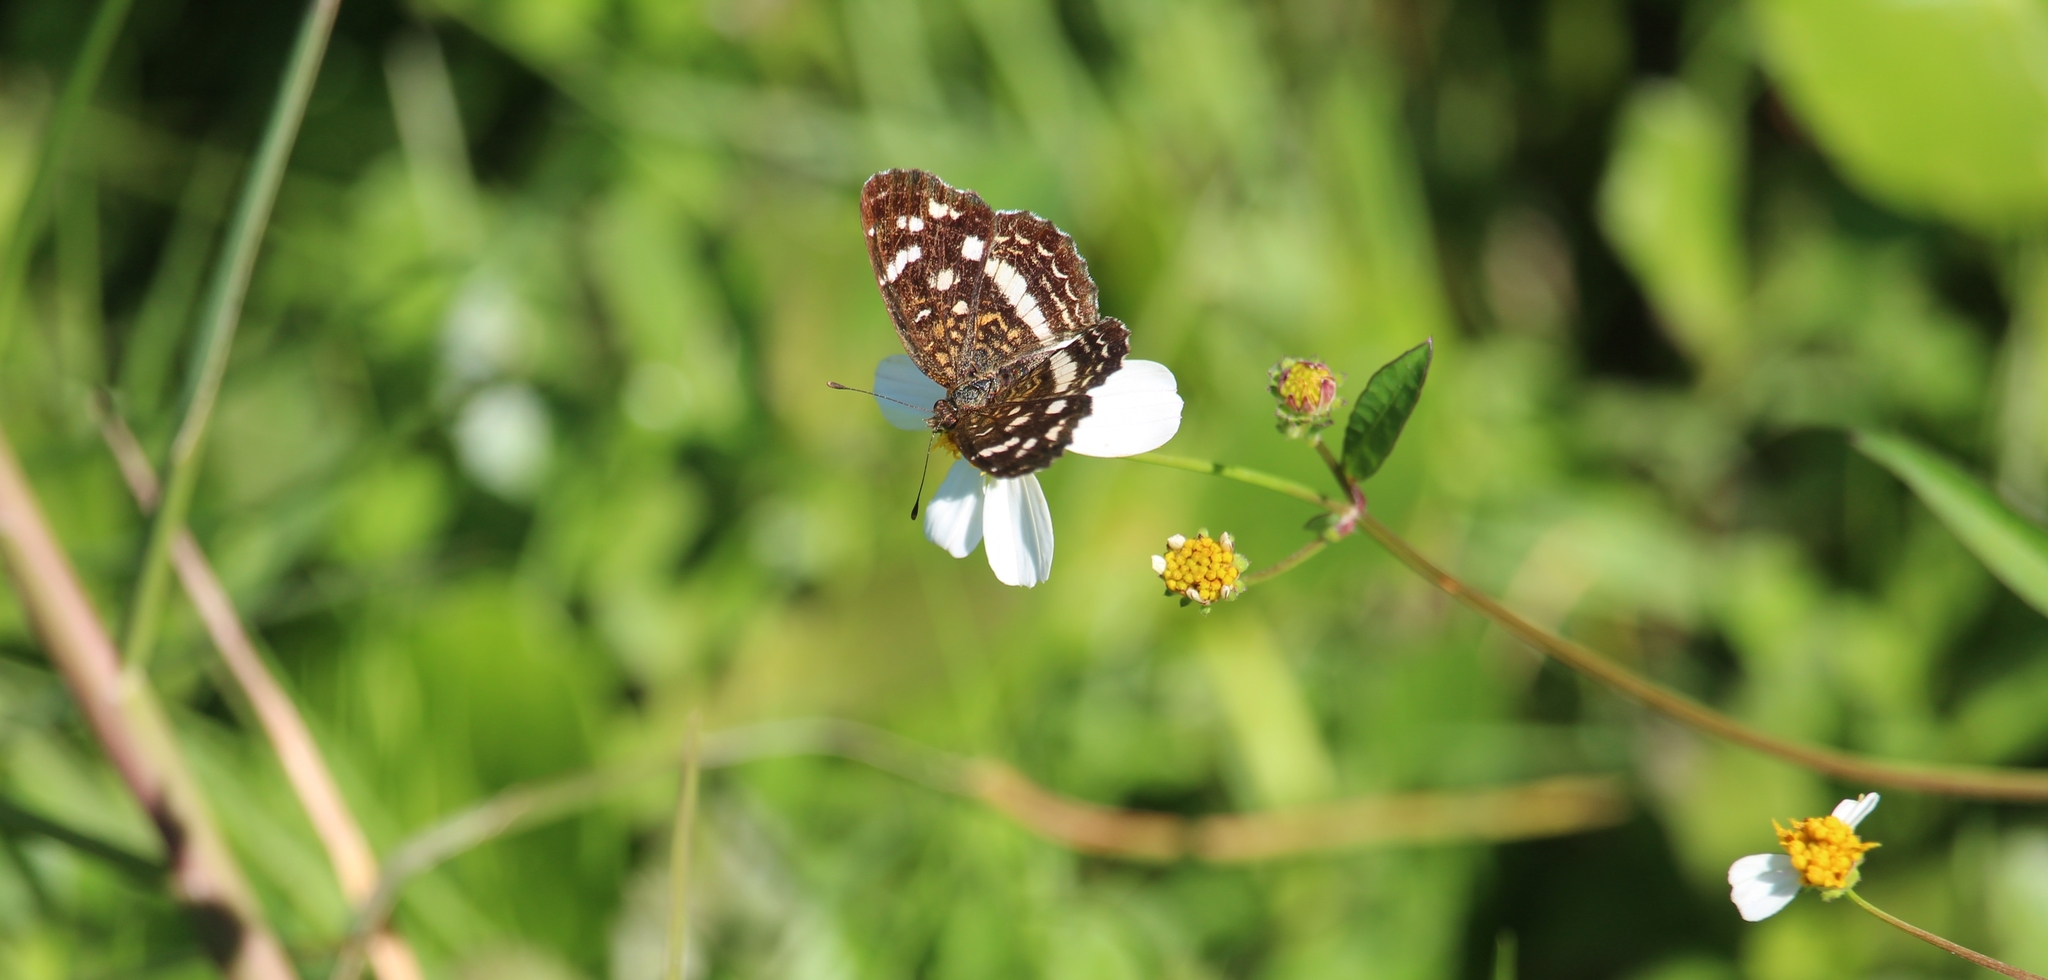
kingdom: Animalia
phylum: Arthropoda
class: Insecta
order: Lepidoptera
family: Nymphalidae
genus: Anthanassa
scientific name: Anthanassa tulcis
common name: Pale-banded crescent
